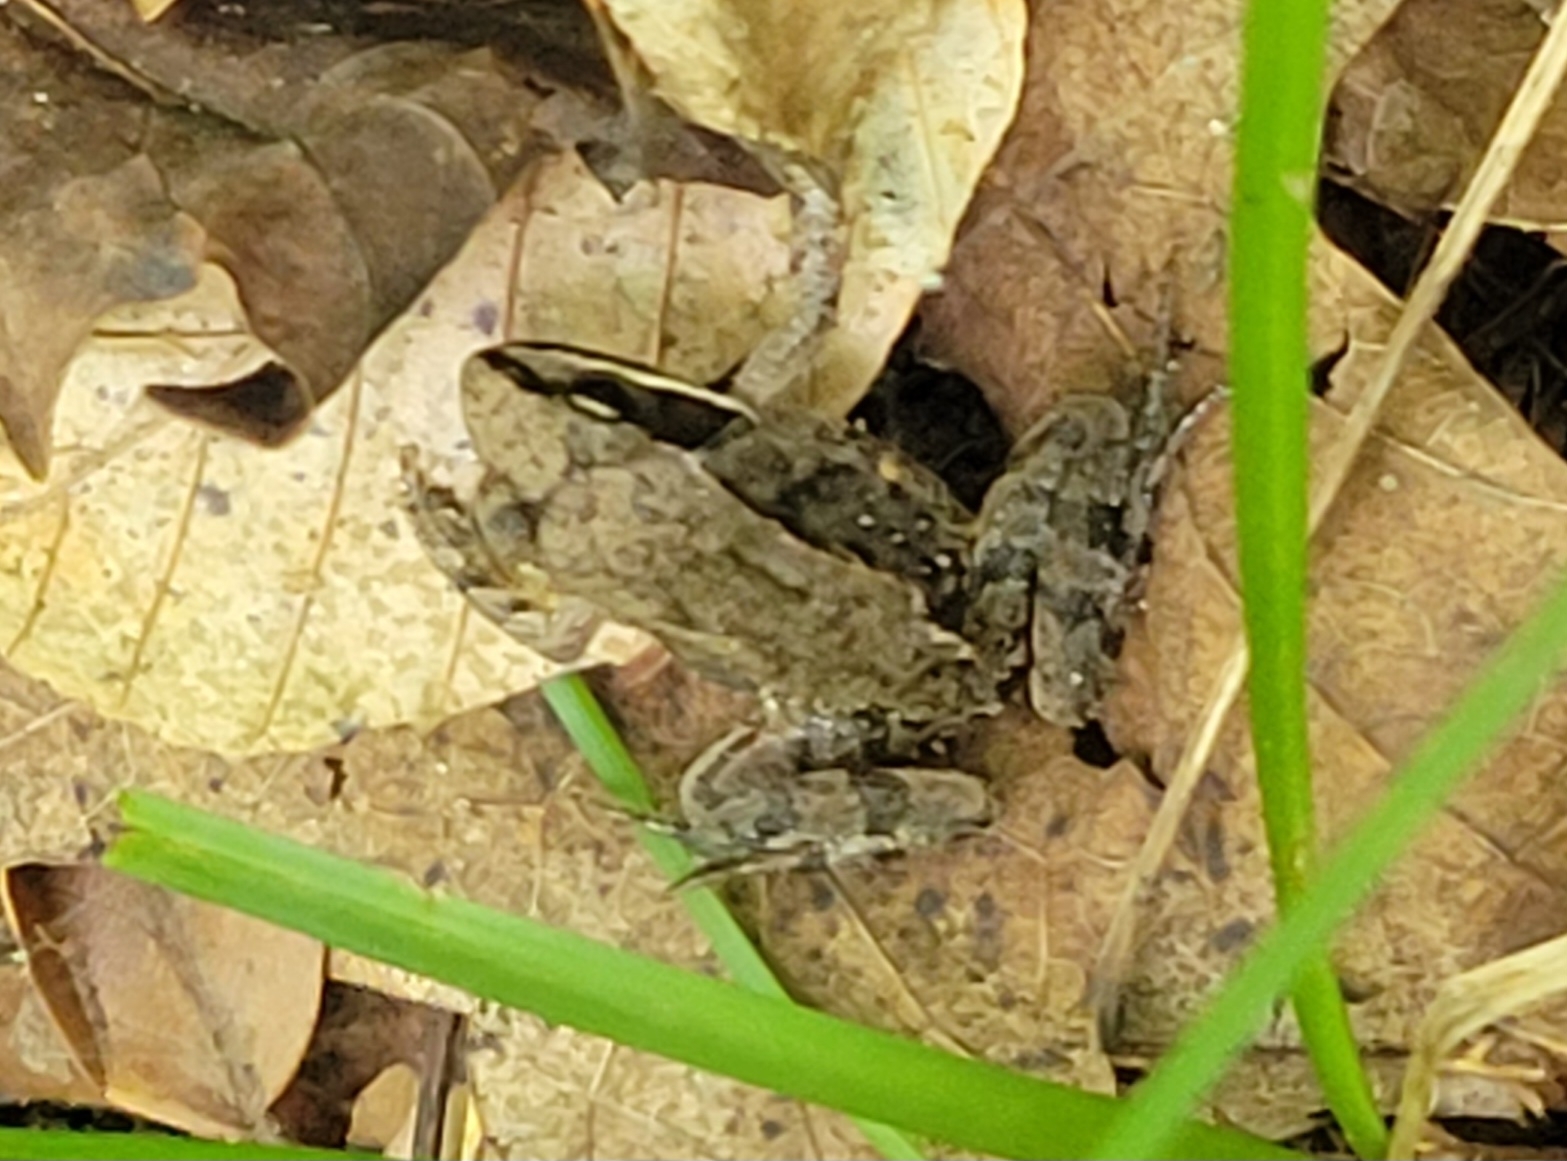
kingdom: Animalia
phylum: Chordata
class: Amphibia
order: Anura
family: Ranidae
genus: Lithobates
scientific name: Lithobates sylvaticus
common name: Wood frog
